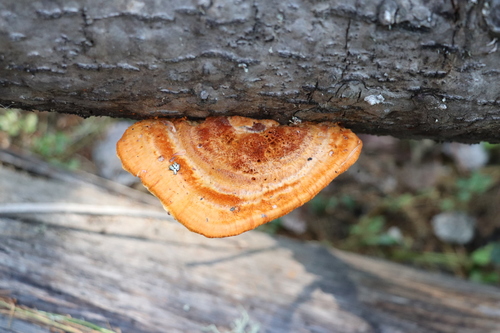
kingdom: Fungi
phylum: Basidiomycota
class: Agaricomycetes
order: Polyporales
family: Pycnoporellaceae
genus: Pycnoporellus
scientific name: Pycnoporellus fulgens
